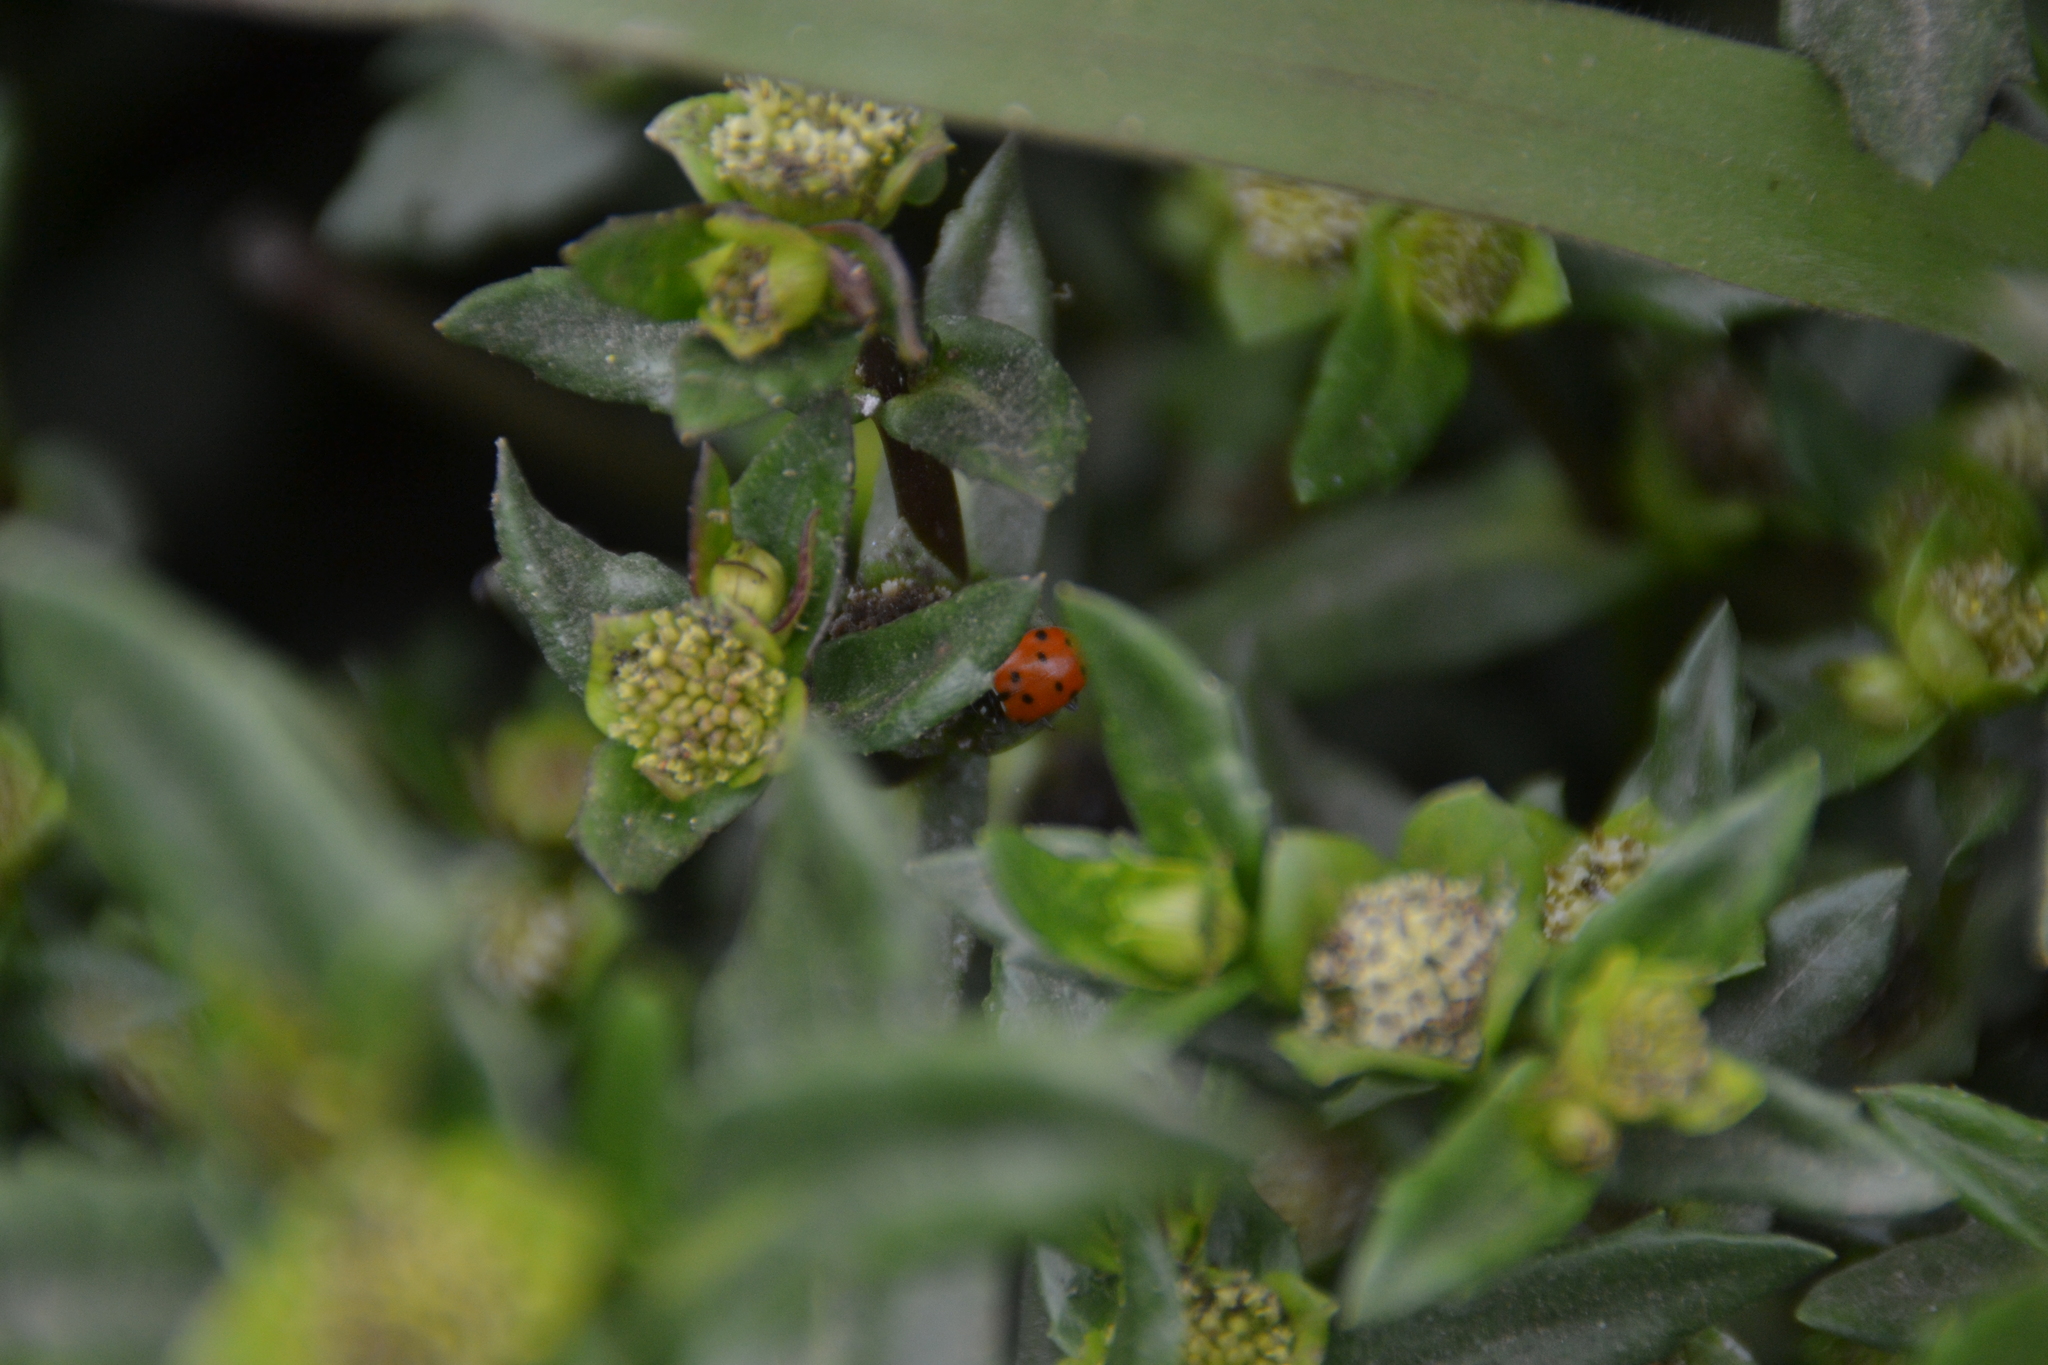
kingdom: Animalia
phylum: Arthropoda
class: Insecta
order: Coleoptera
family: Coccinellidae
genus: Hippodamia
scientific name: Hippodamia convergens
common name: Convergent lady beetle
